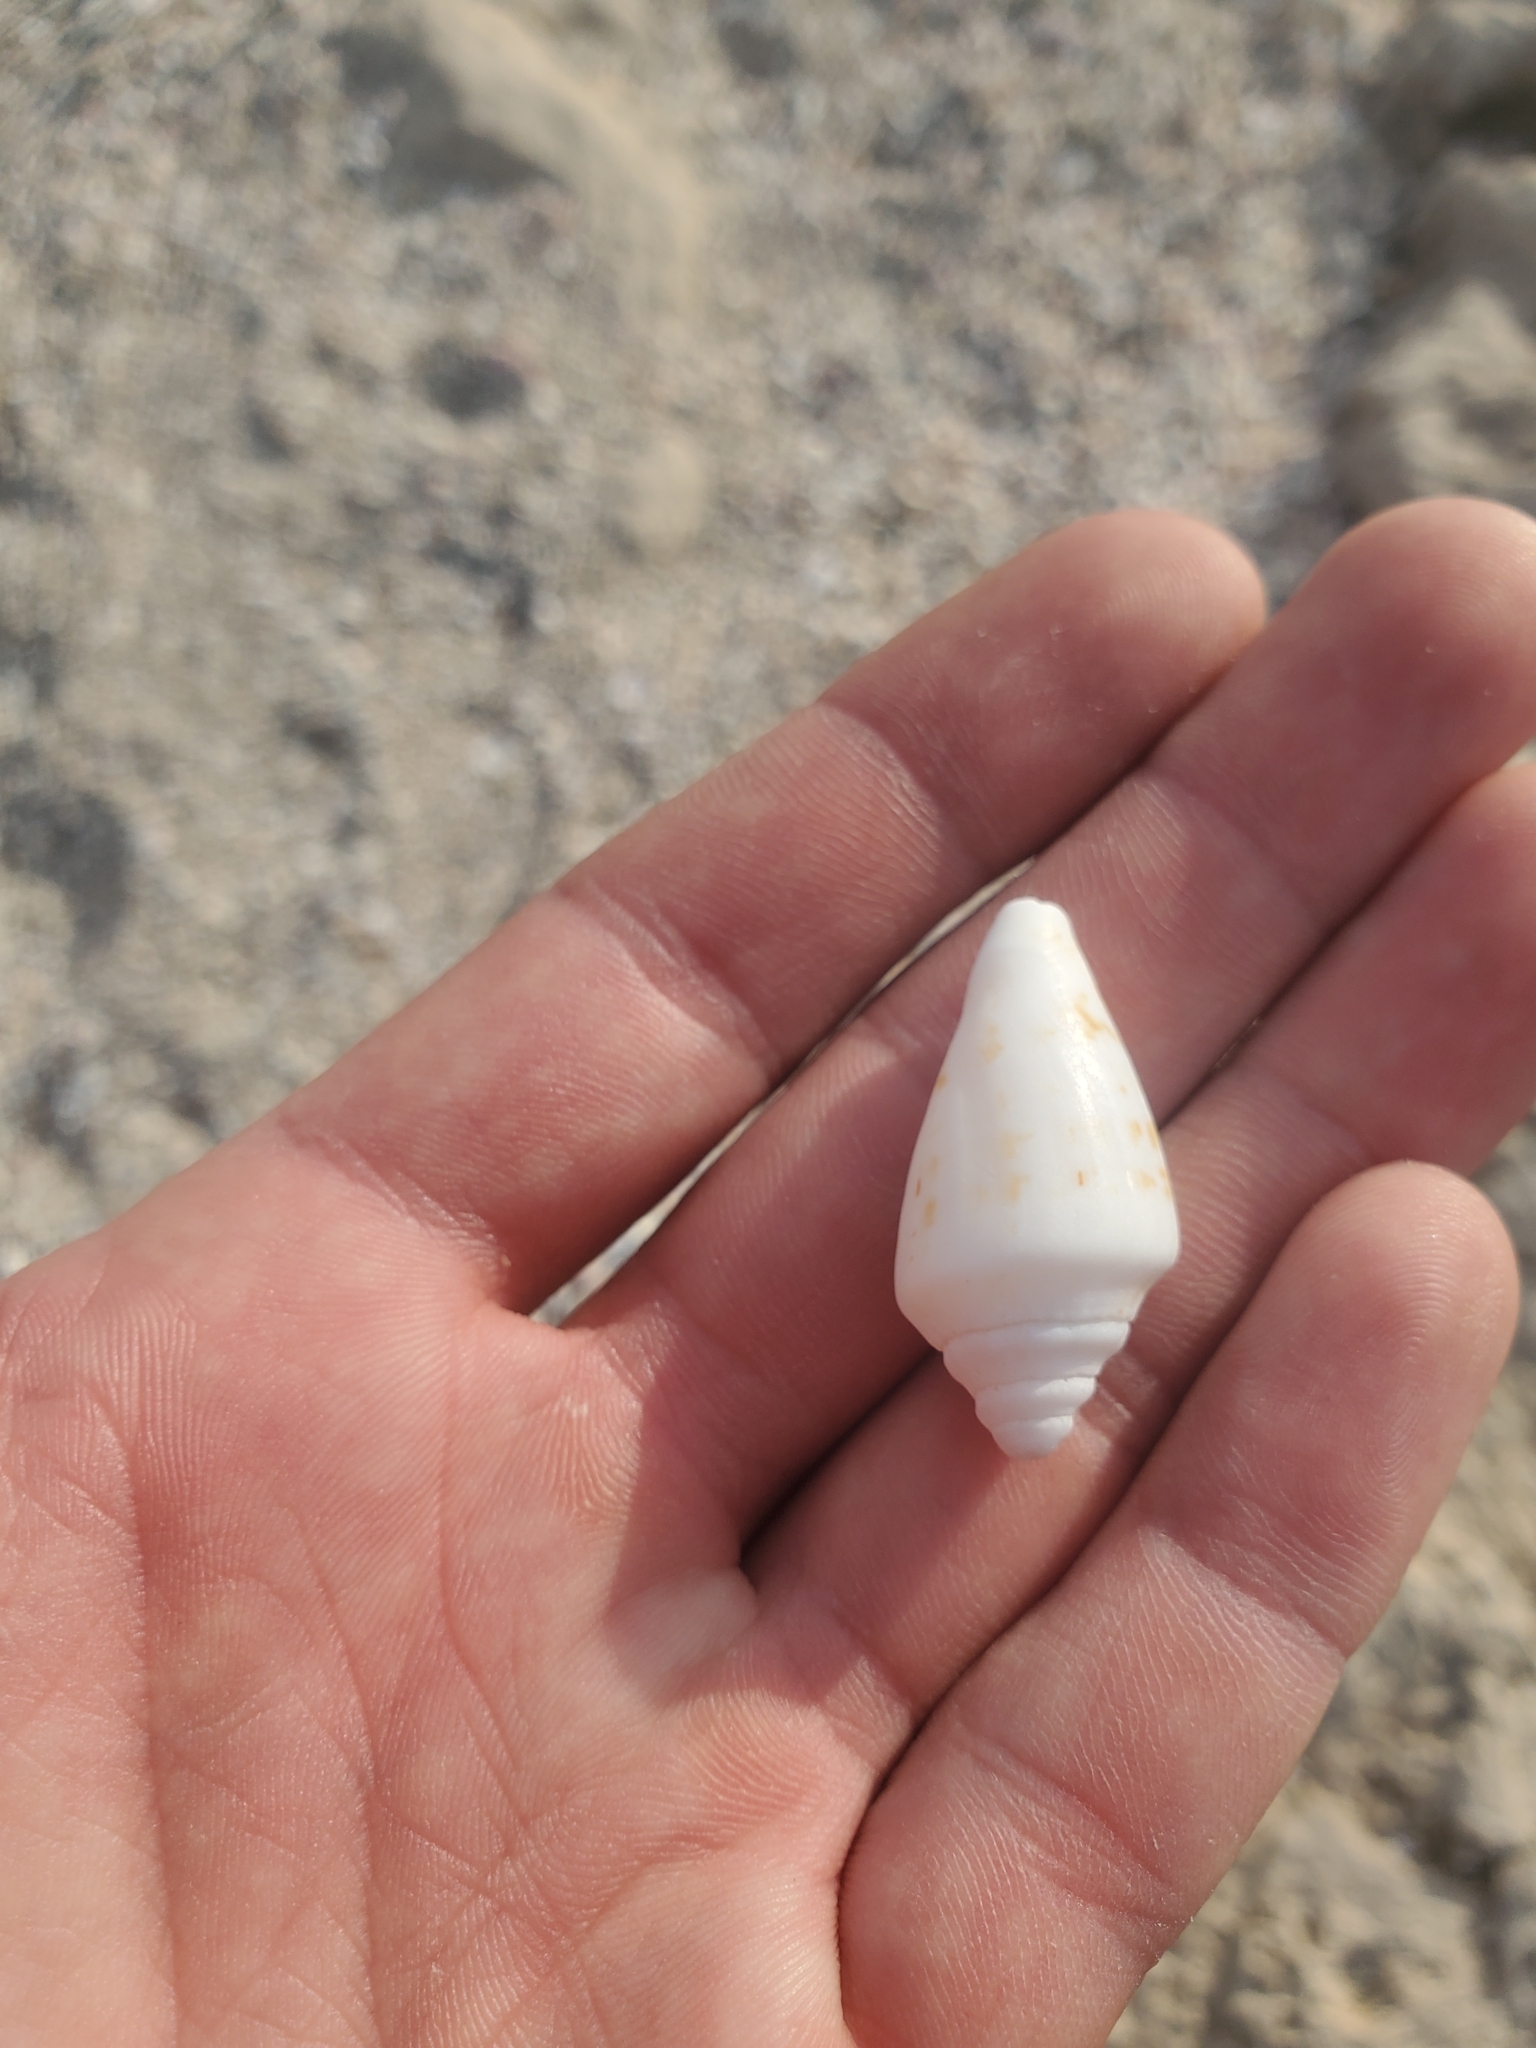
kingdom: Animalia
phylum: Mollusca
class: Gastropoda
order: Littorinimorpha
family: Strombidae
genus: Conomurex
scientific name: Conomurex persicus
